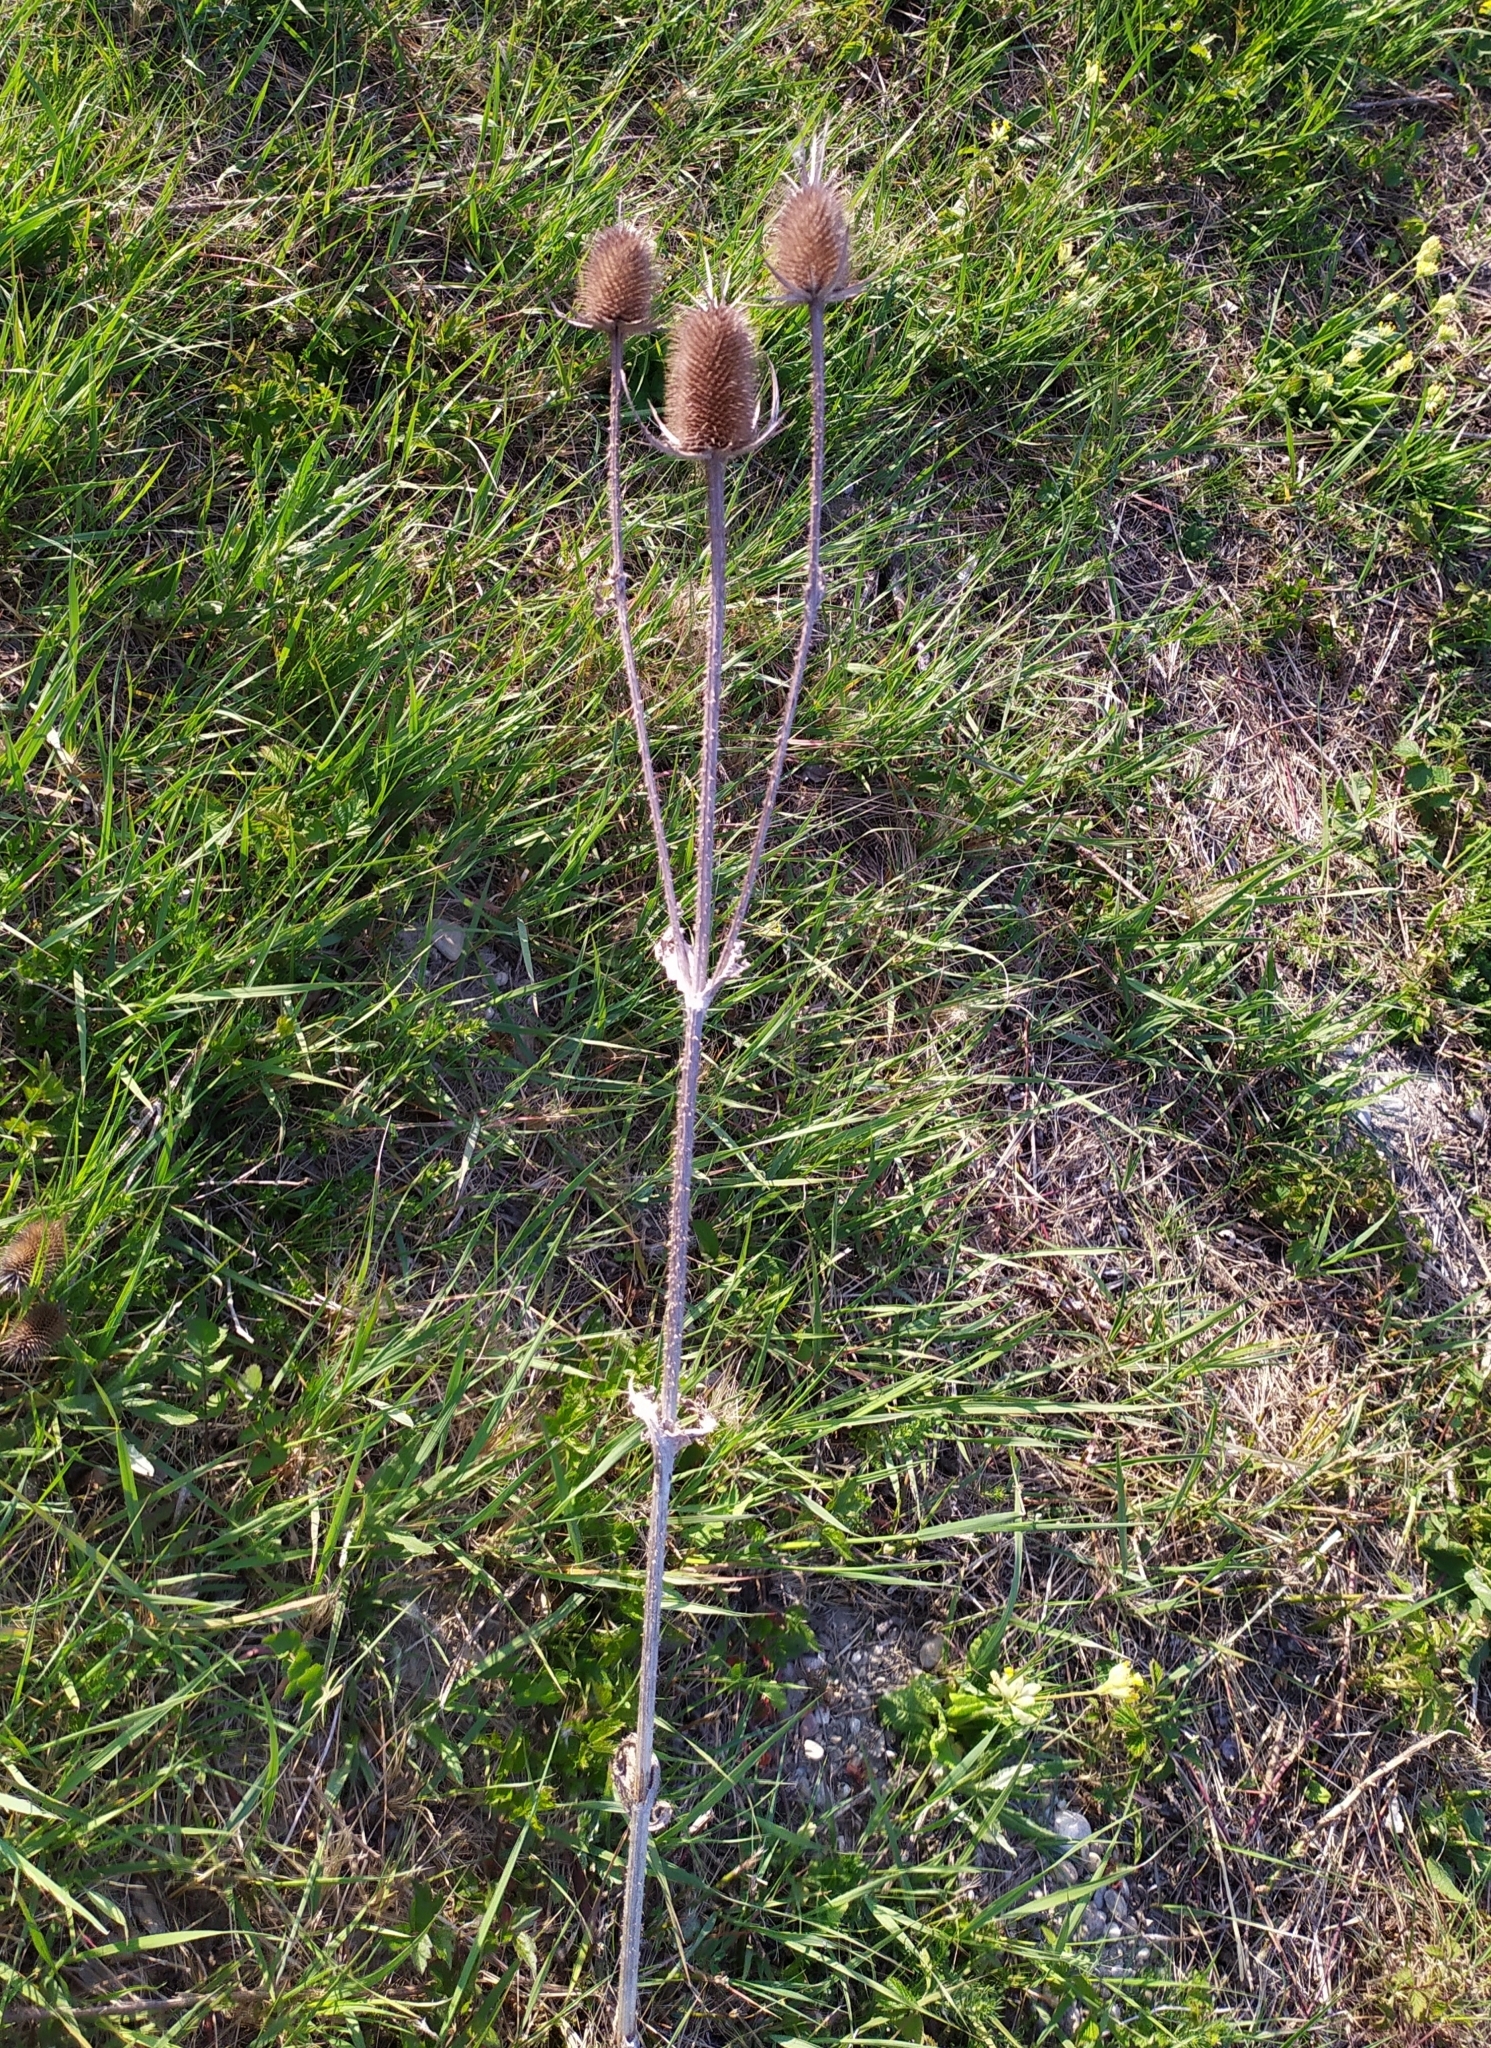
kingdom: Plantae
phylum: Tracheophyta
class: Magnoliopsida
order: Dipsacales
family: Caprifoliaceae
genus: Dipsacus
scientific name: Dipsacus laciniatus
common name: Cut-leaved teasel
